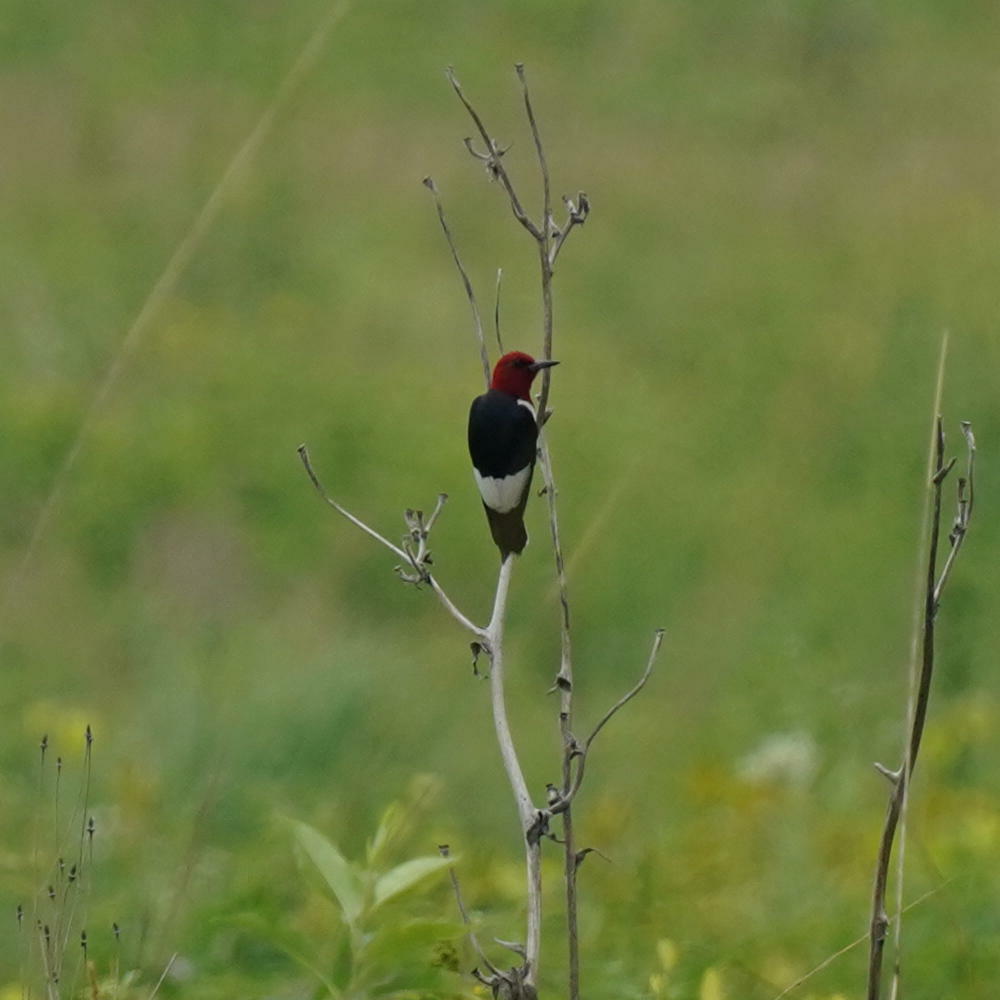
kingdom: Animalia
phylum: Chordata
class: Aves
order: Piciformes
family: Picidae
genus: Melanerpes
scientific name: Melanerpes erythrocephalus
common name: Red-headed woodpecker
